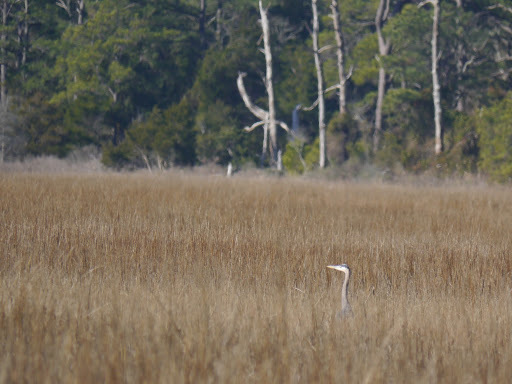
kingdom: Animalia
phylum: Chordata
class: Aves
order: Pelecaniformes
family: Ardeidae
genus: Ardea
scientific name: Ardea herodias
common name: Great blue heron
